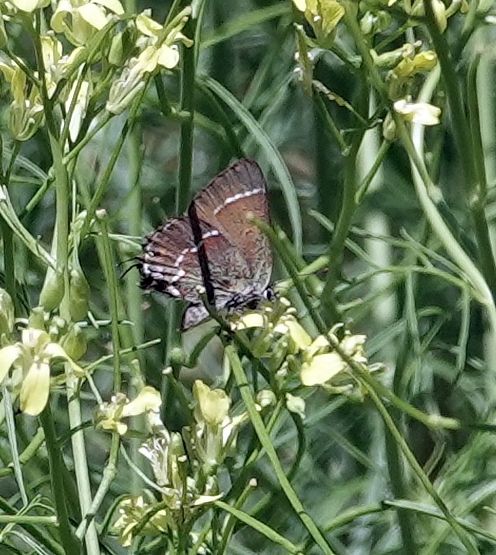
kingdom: Animalia
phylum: Arthropoda
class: Insecta
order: Lepidoptera
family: Lycaenidae
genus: Mitoura
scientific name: Mitoura gryneus
